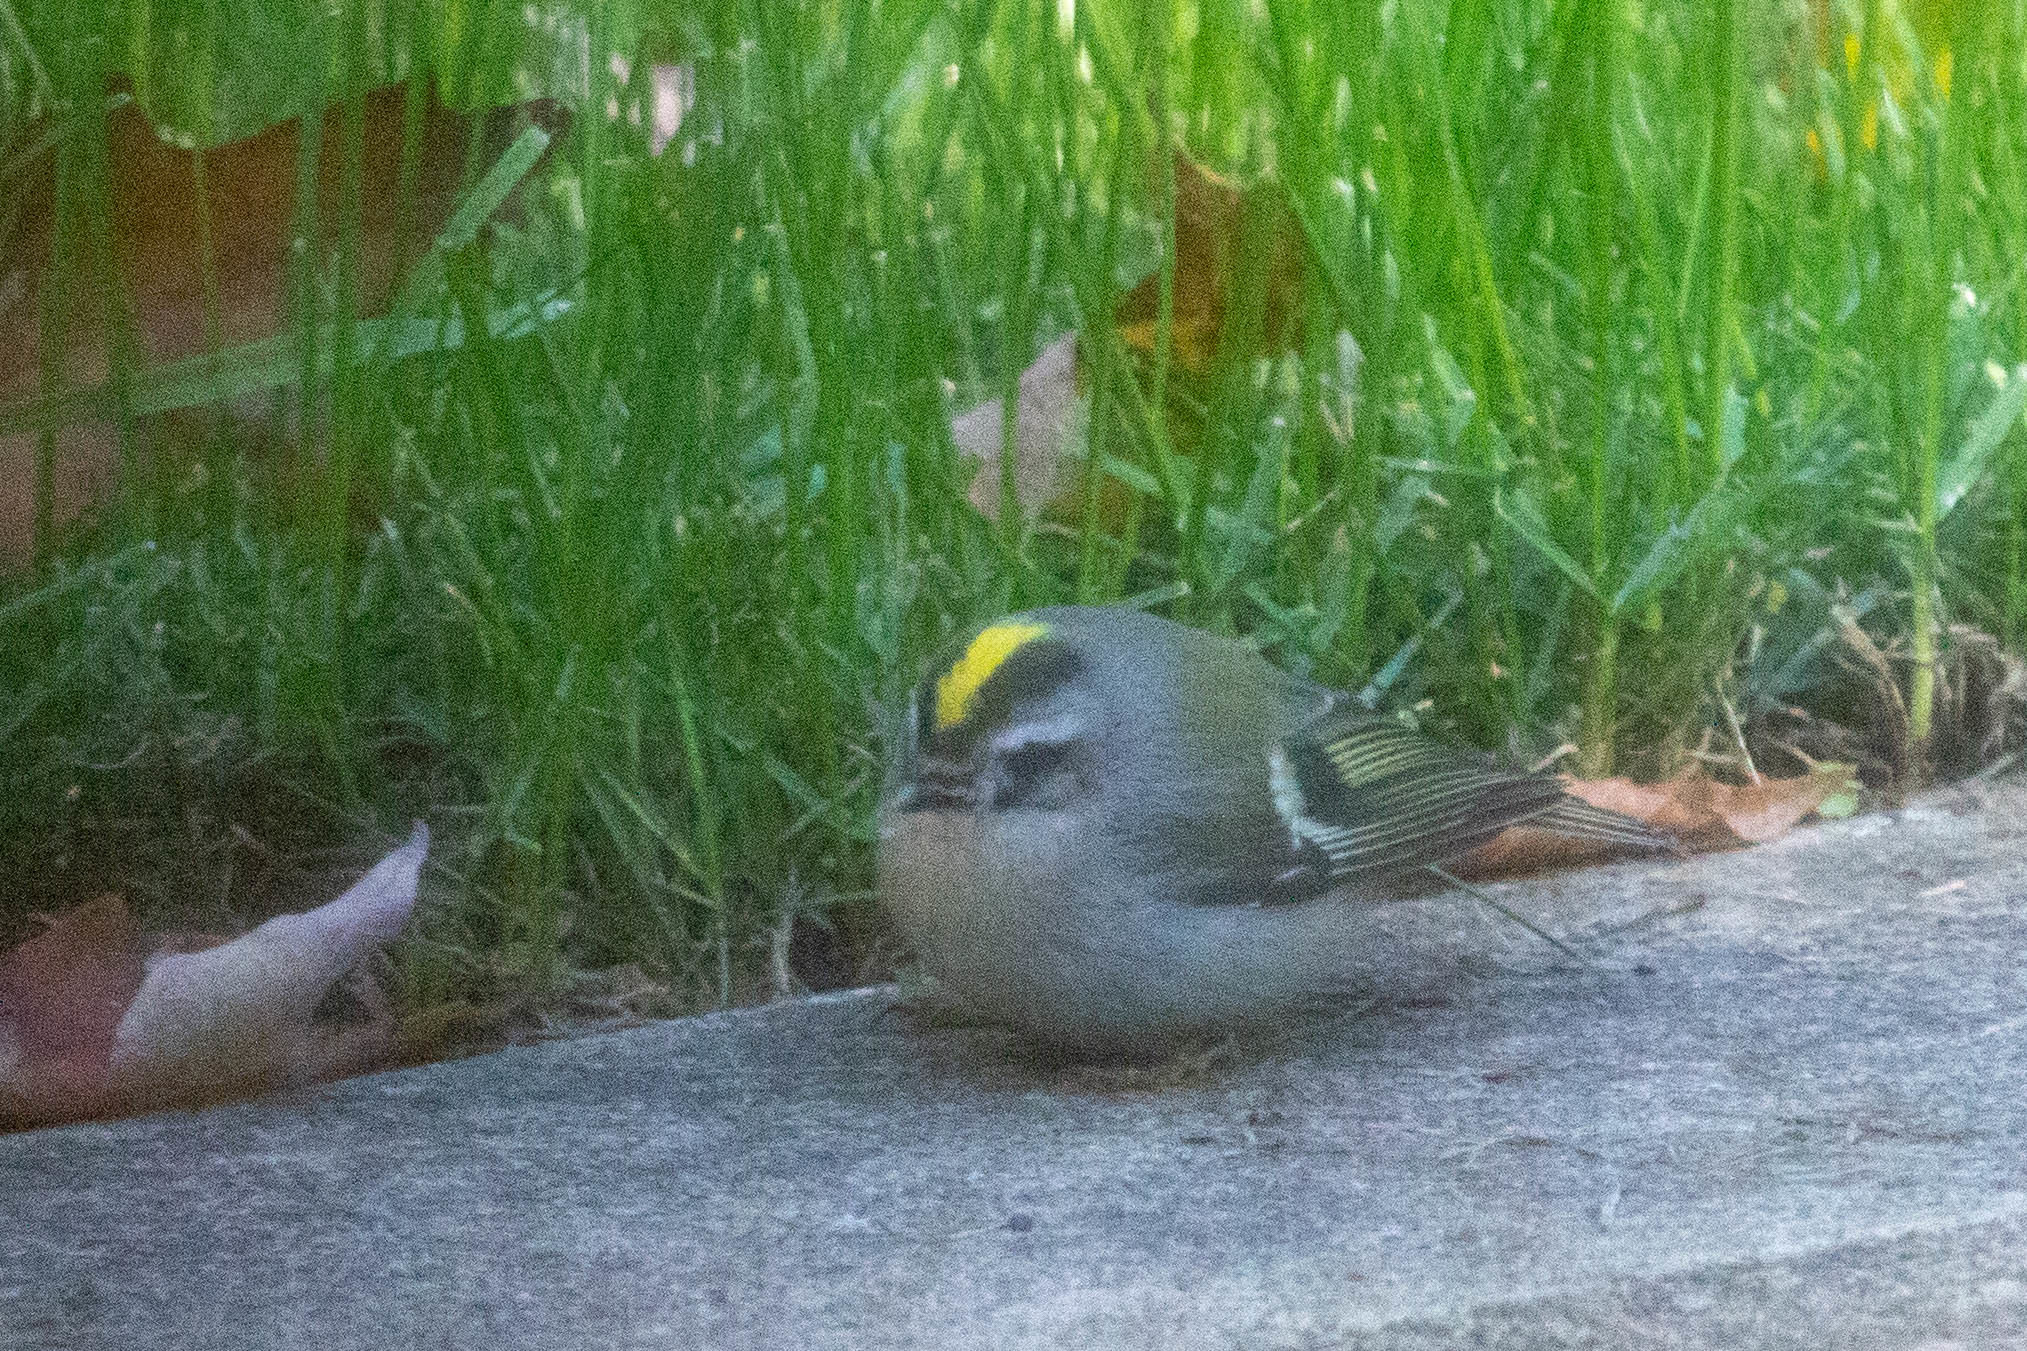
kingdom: Animalia
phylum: Chordata
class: Aves
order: Passeriformes
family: Regulidae
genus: Regulus
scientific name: Regulus satrapa
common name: Golden-crowned kinglet
